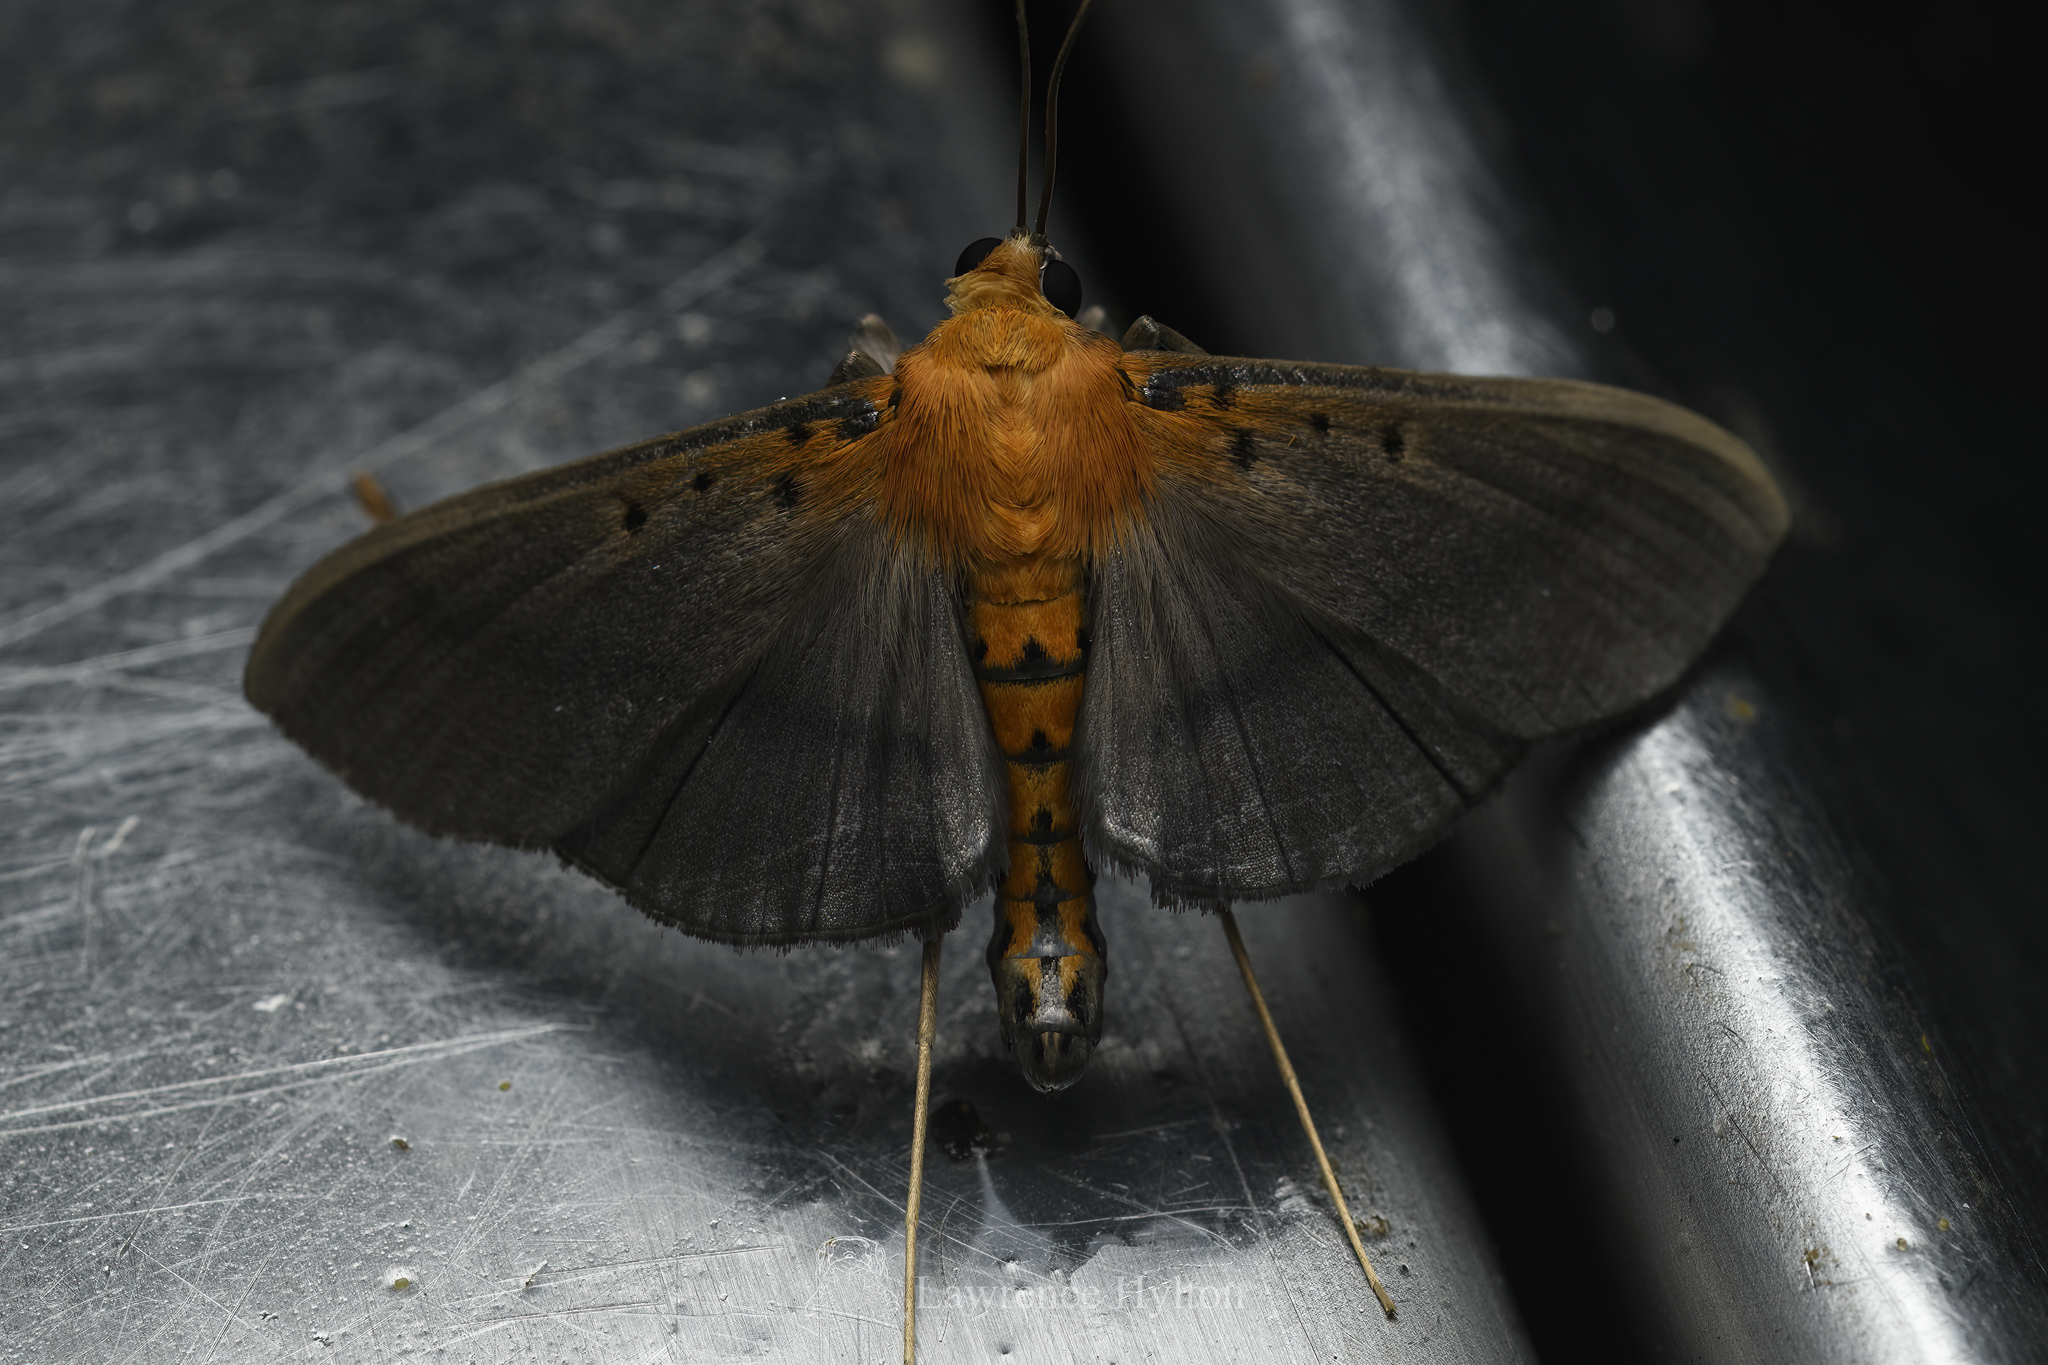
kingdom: Animalia
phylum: Arthropoda
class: Insecta
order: Lepidoptera
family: Crambidae
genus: Filodes
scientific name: Filodes fulvidorsalis
